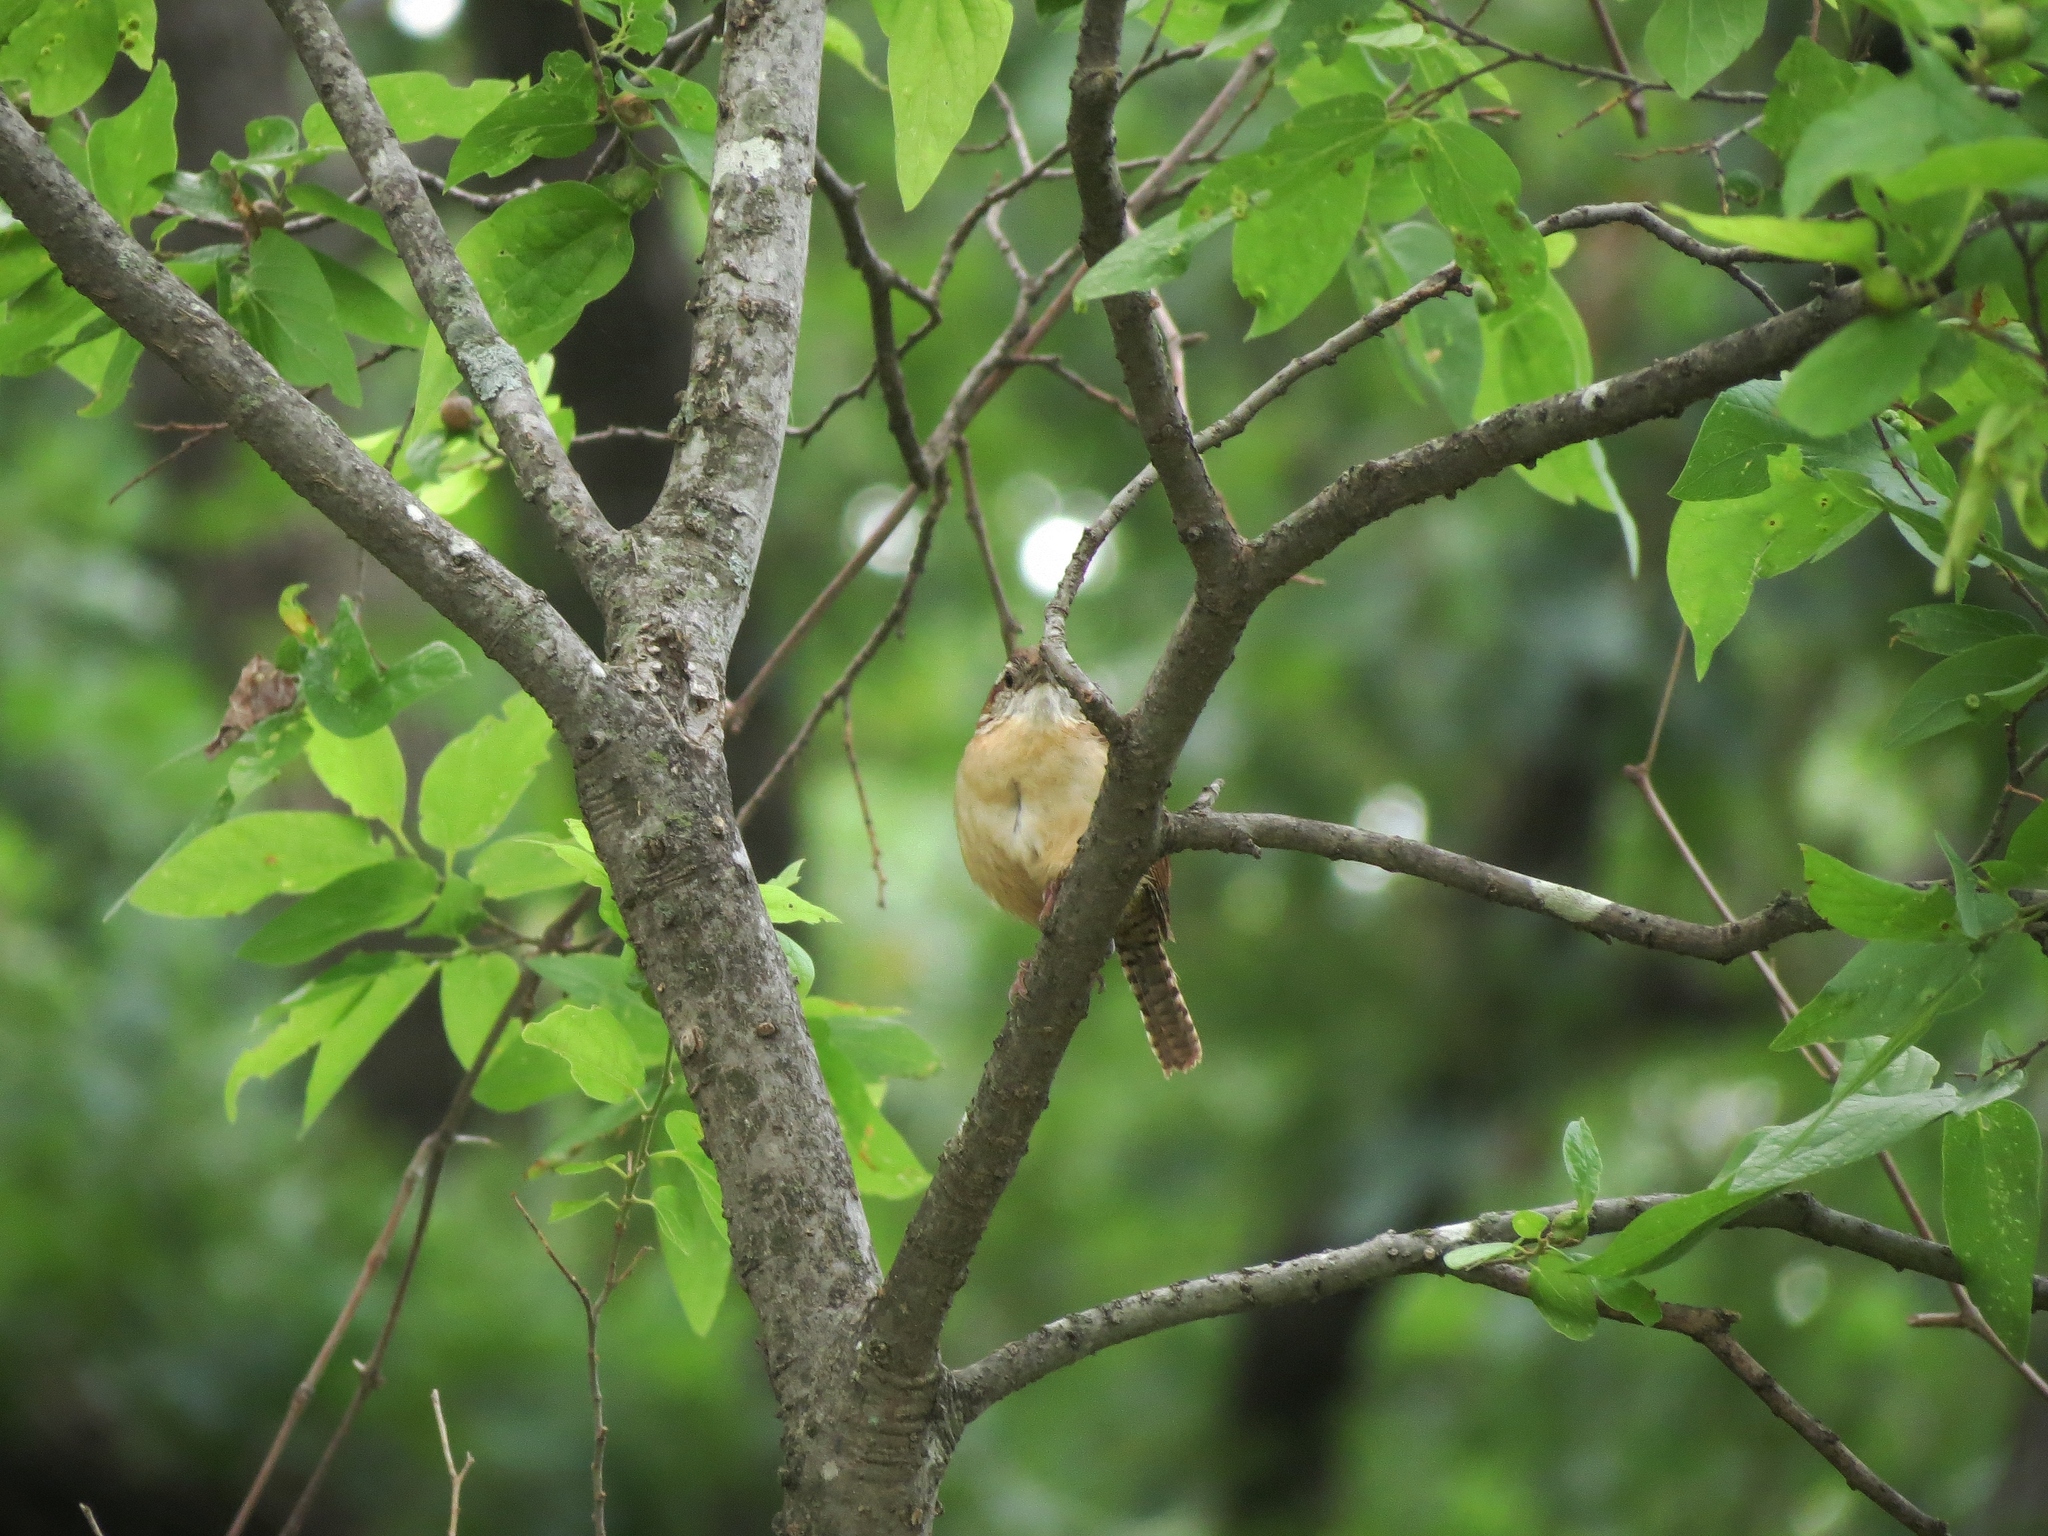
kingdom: Animalia
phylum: Chordata
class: Aves
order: Passeriformes
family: Troglodytidae
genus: Thryothorus
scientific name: Thryothorus ludovicianus
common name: Carolina wren
